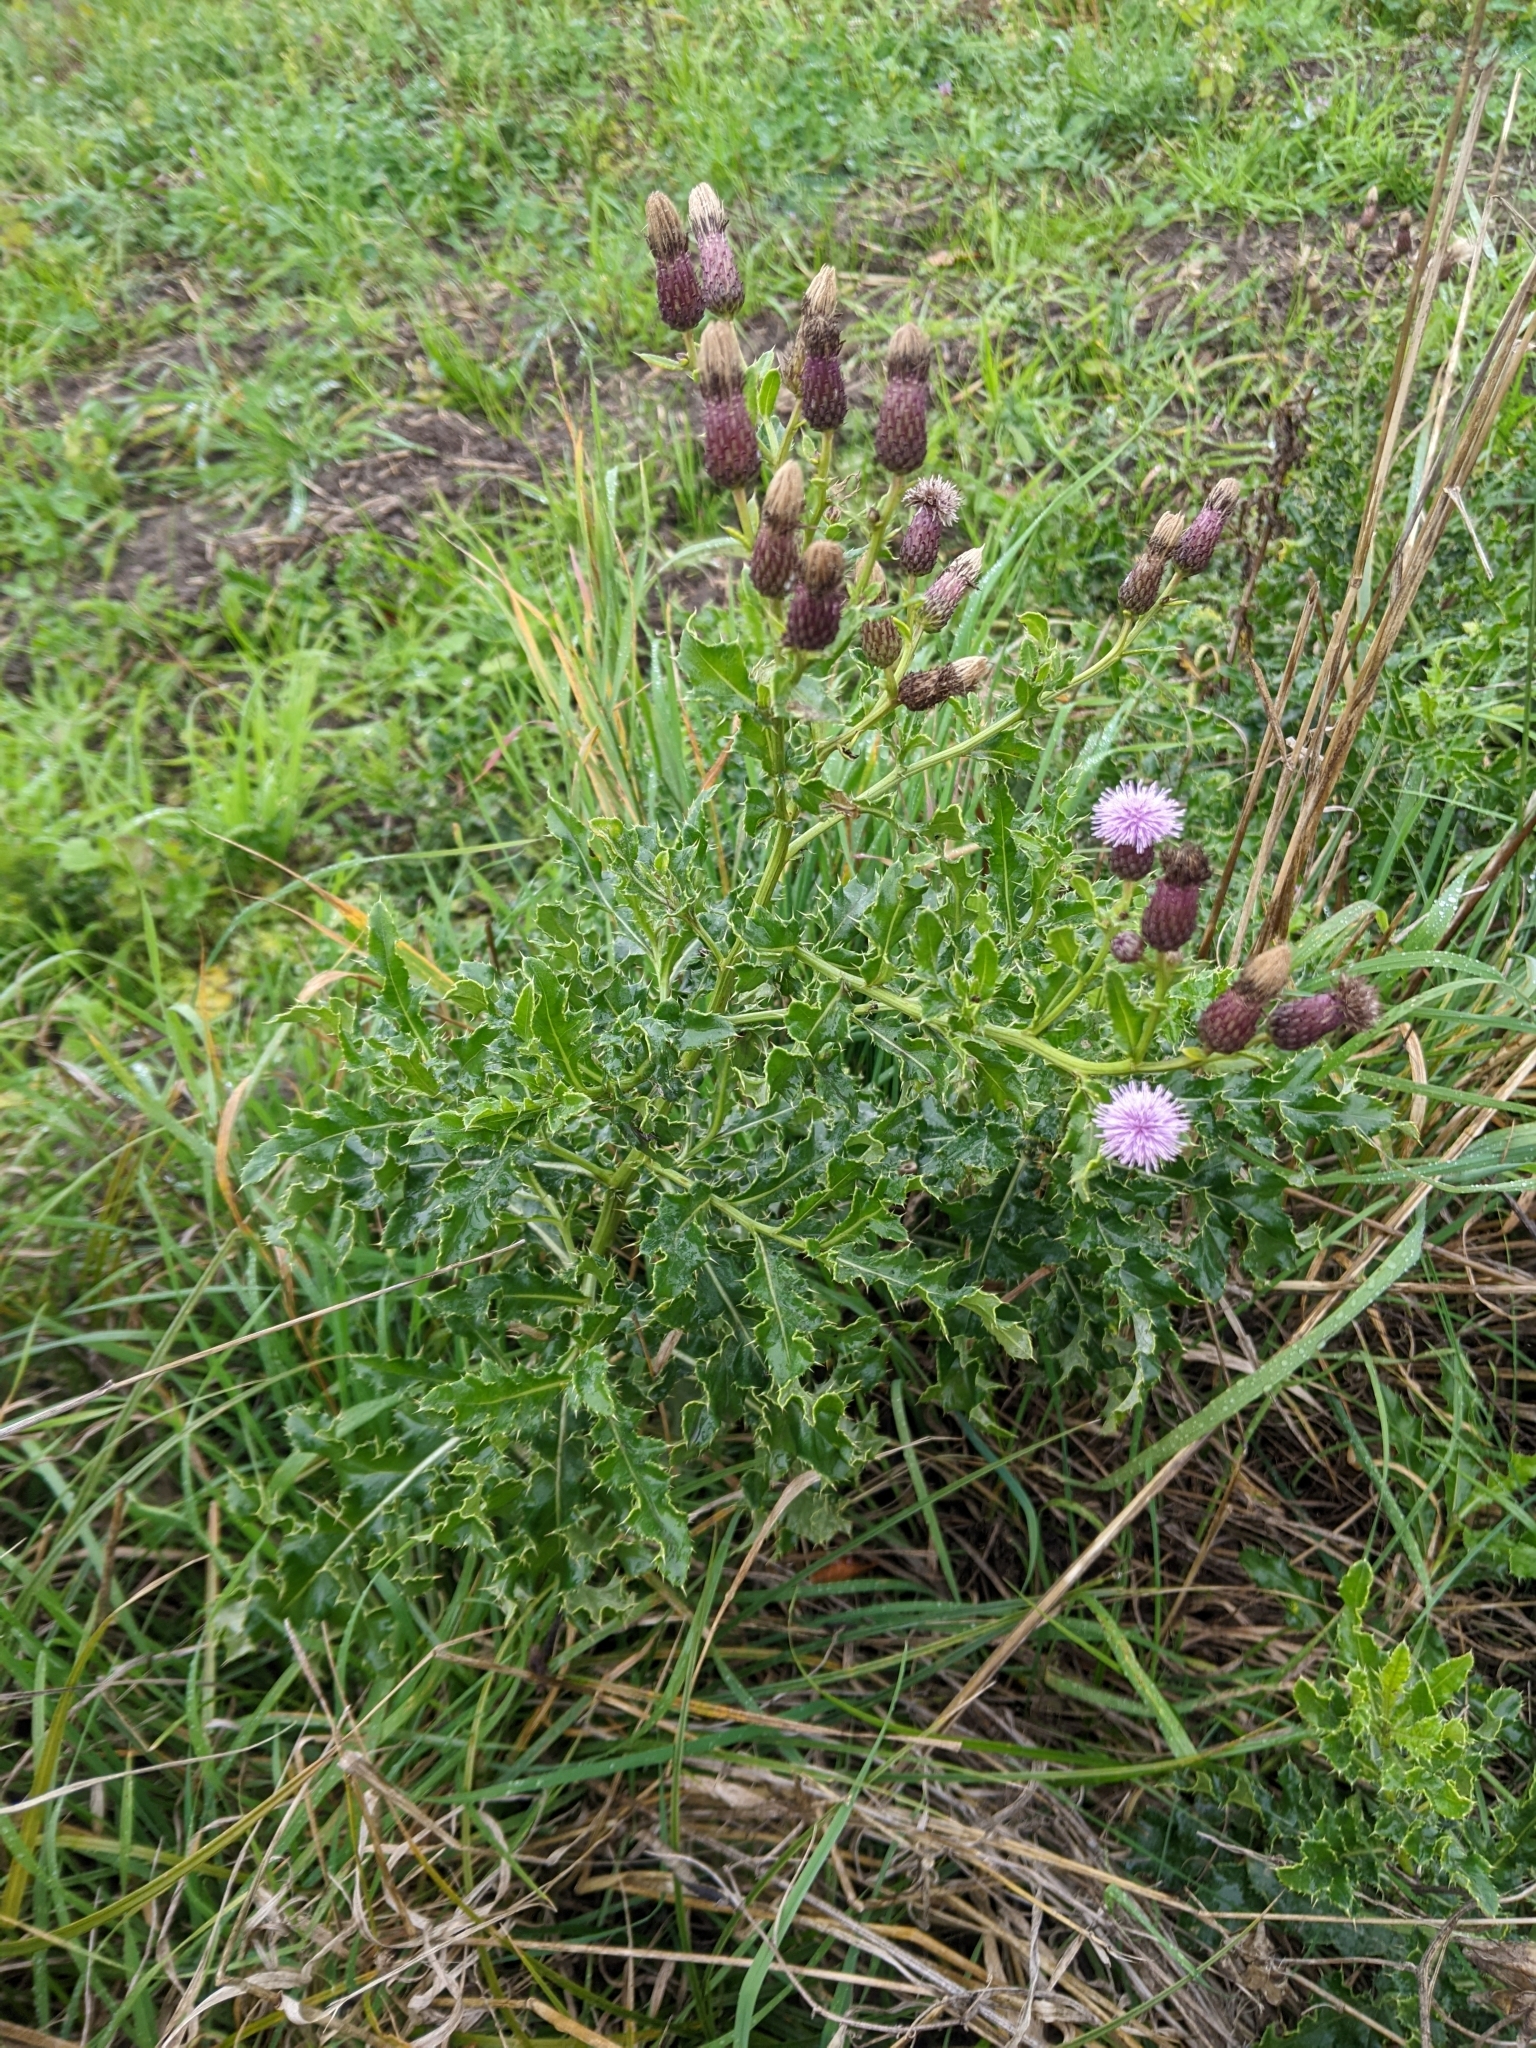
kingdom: Plantae
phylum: Tracheophyta
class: Magnoliopsida
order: Asterales
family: Asteraceae
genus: Cirsium
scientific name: Cirsium arvense
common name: Creeping thistle
